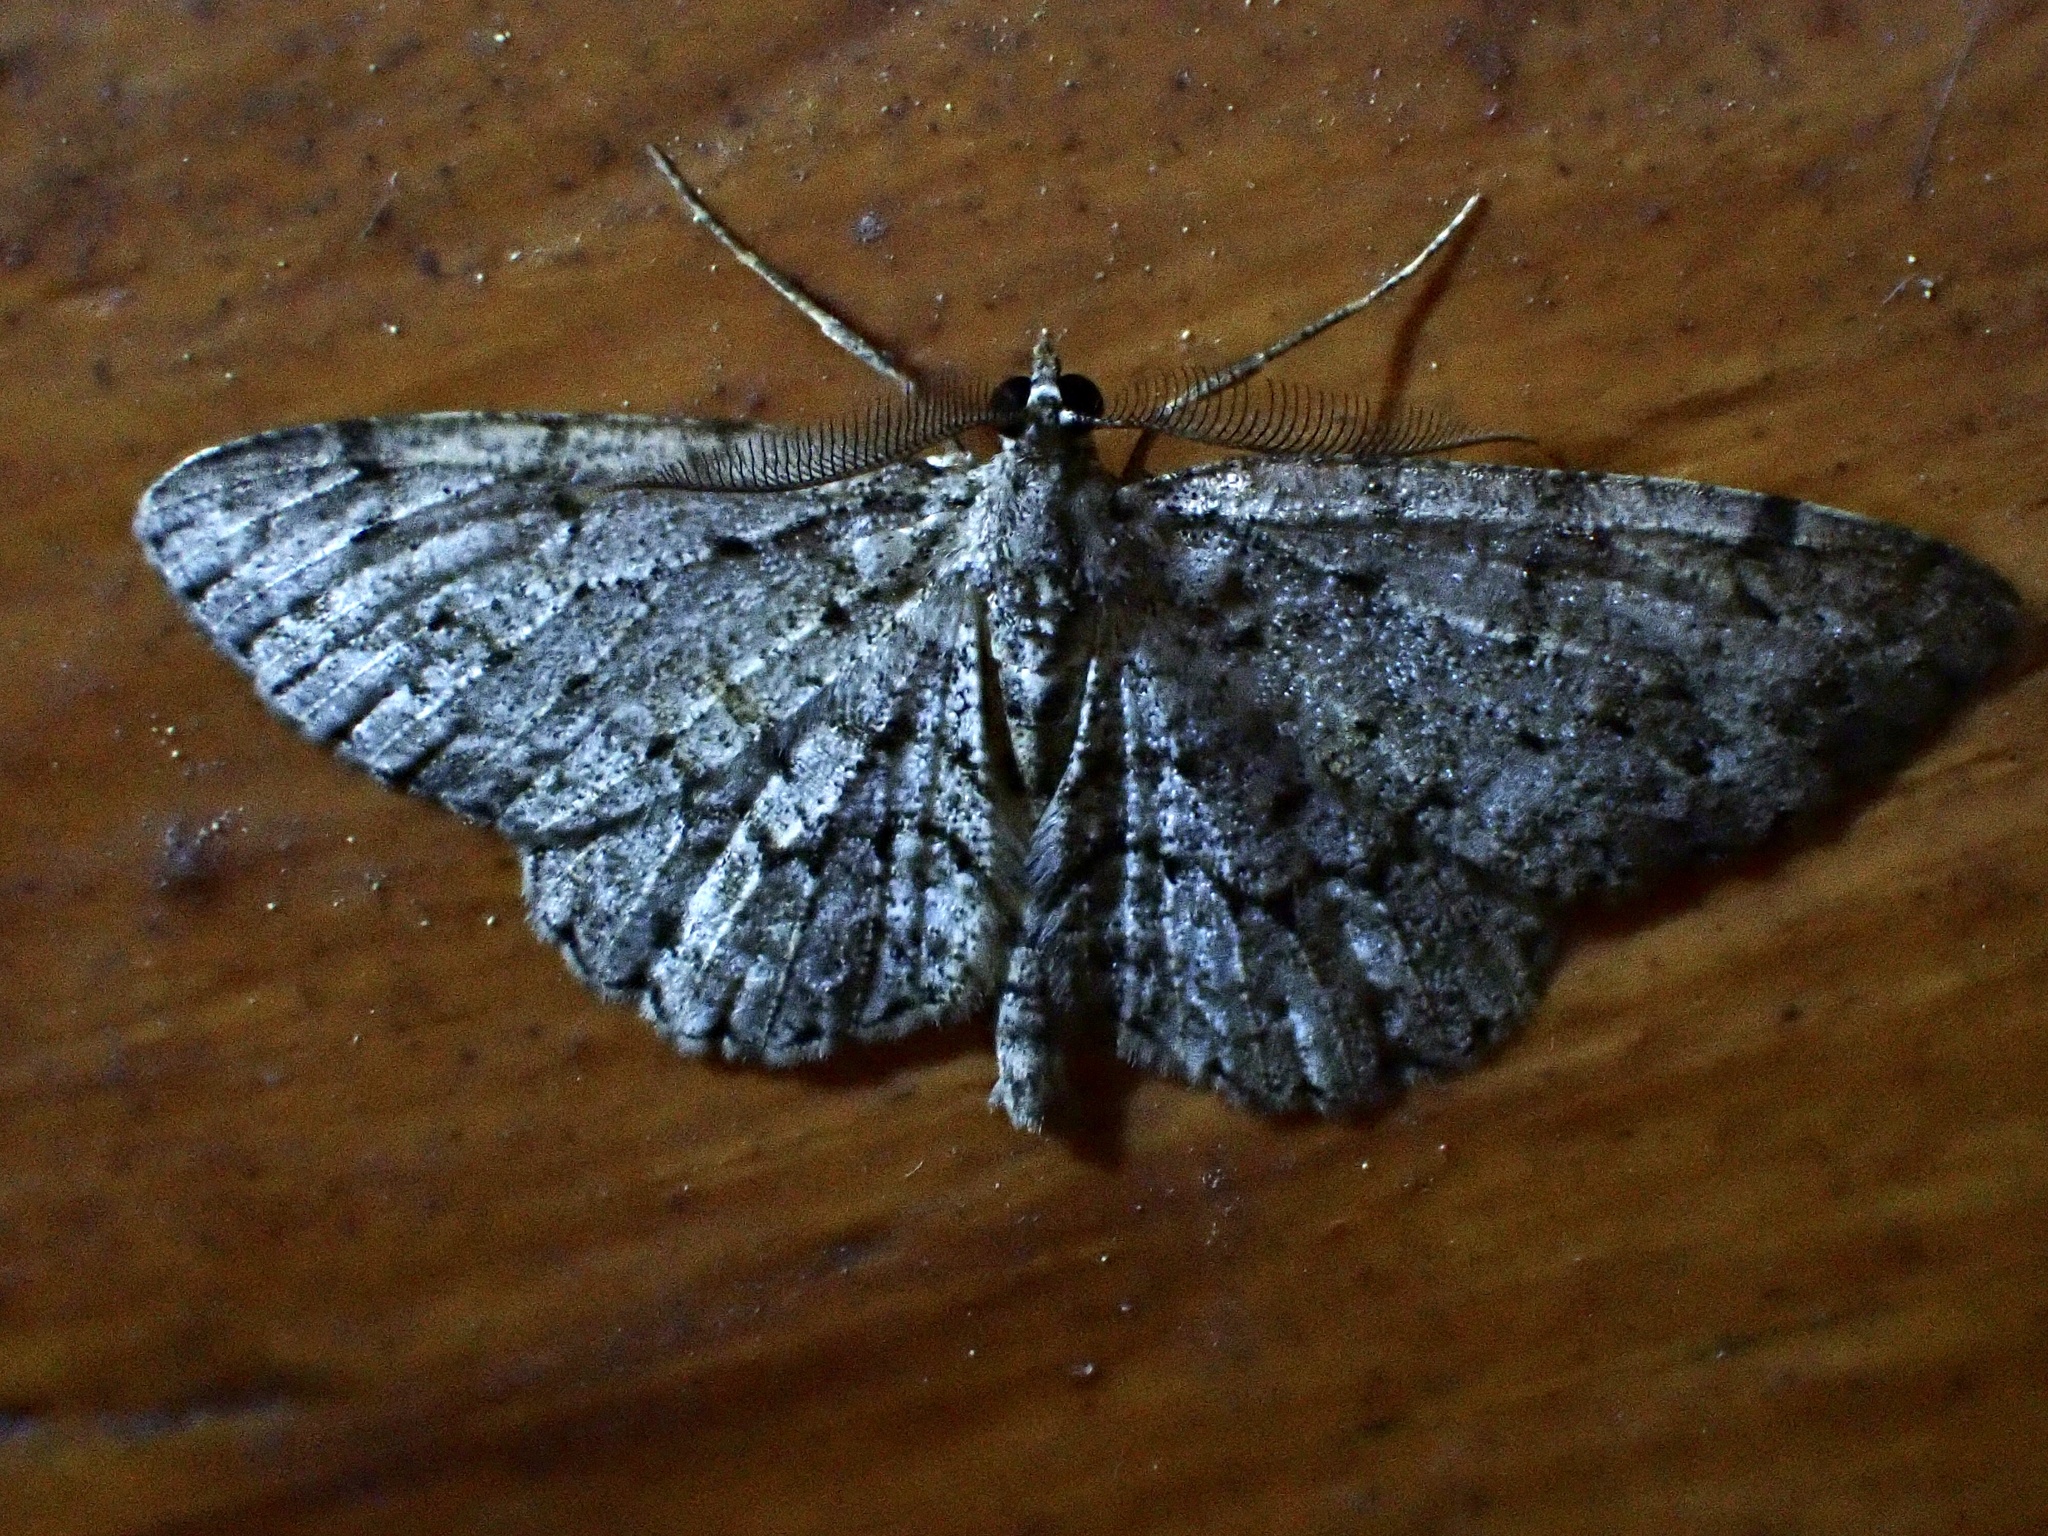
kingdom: Animalia
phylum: Arthropoda
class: Insecta
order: Lepidoptera
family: Geometridae
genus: Protoboarmia
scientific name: Protoboarmia porcelaria
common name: Porcelain gray
